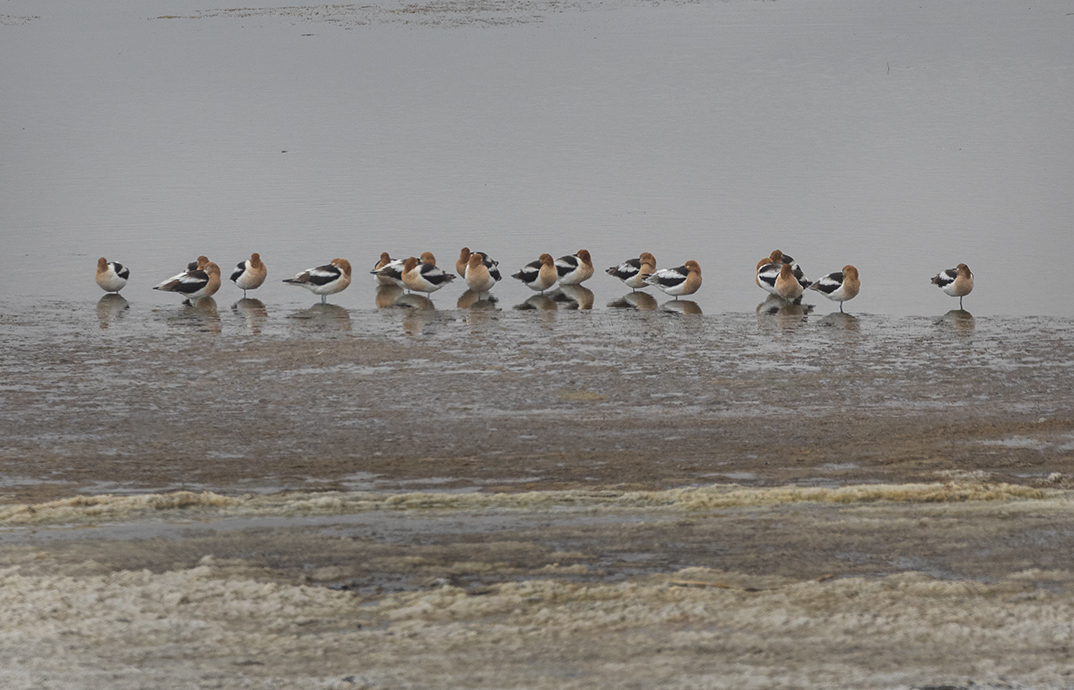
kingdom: Animalia
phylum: Chordata
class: Aves
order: Charadriiformes
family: Recurvirostridae
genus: Recurvirostra
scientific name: Recurvirostra americana
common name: American avocet
